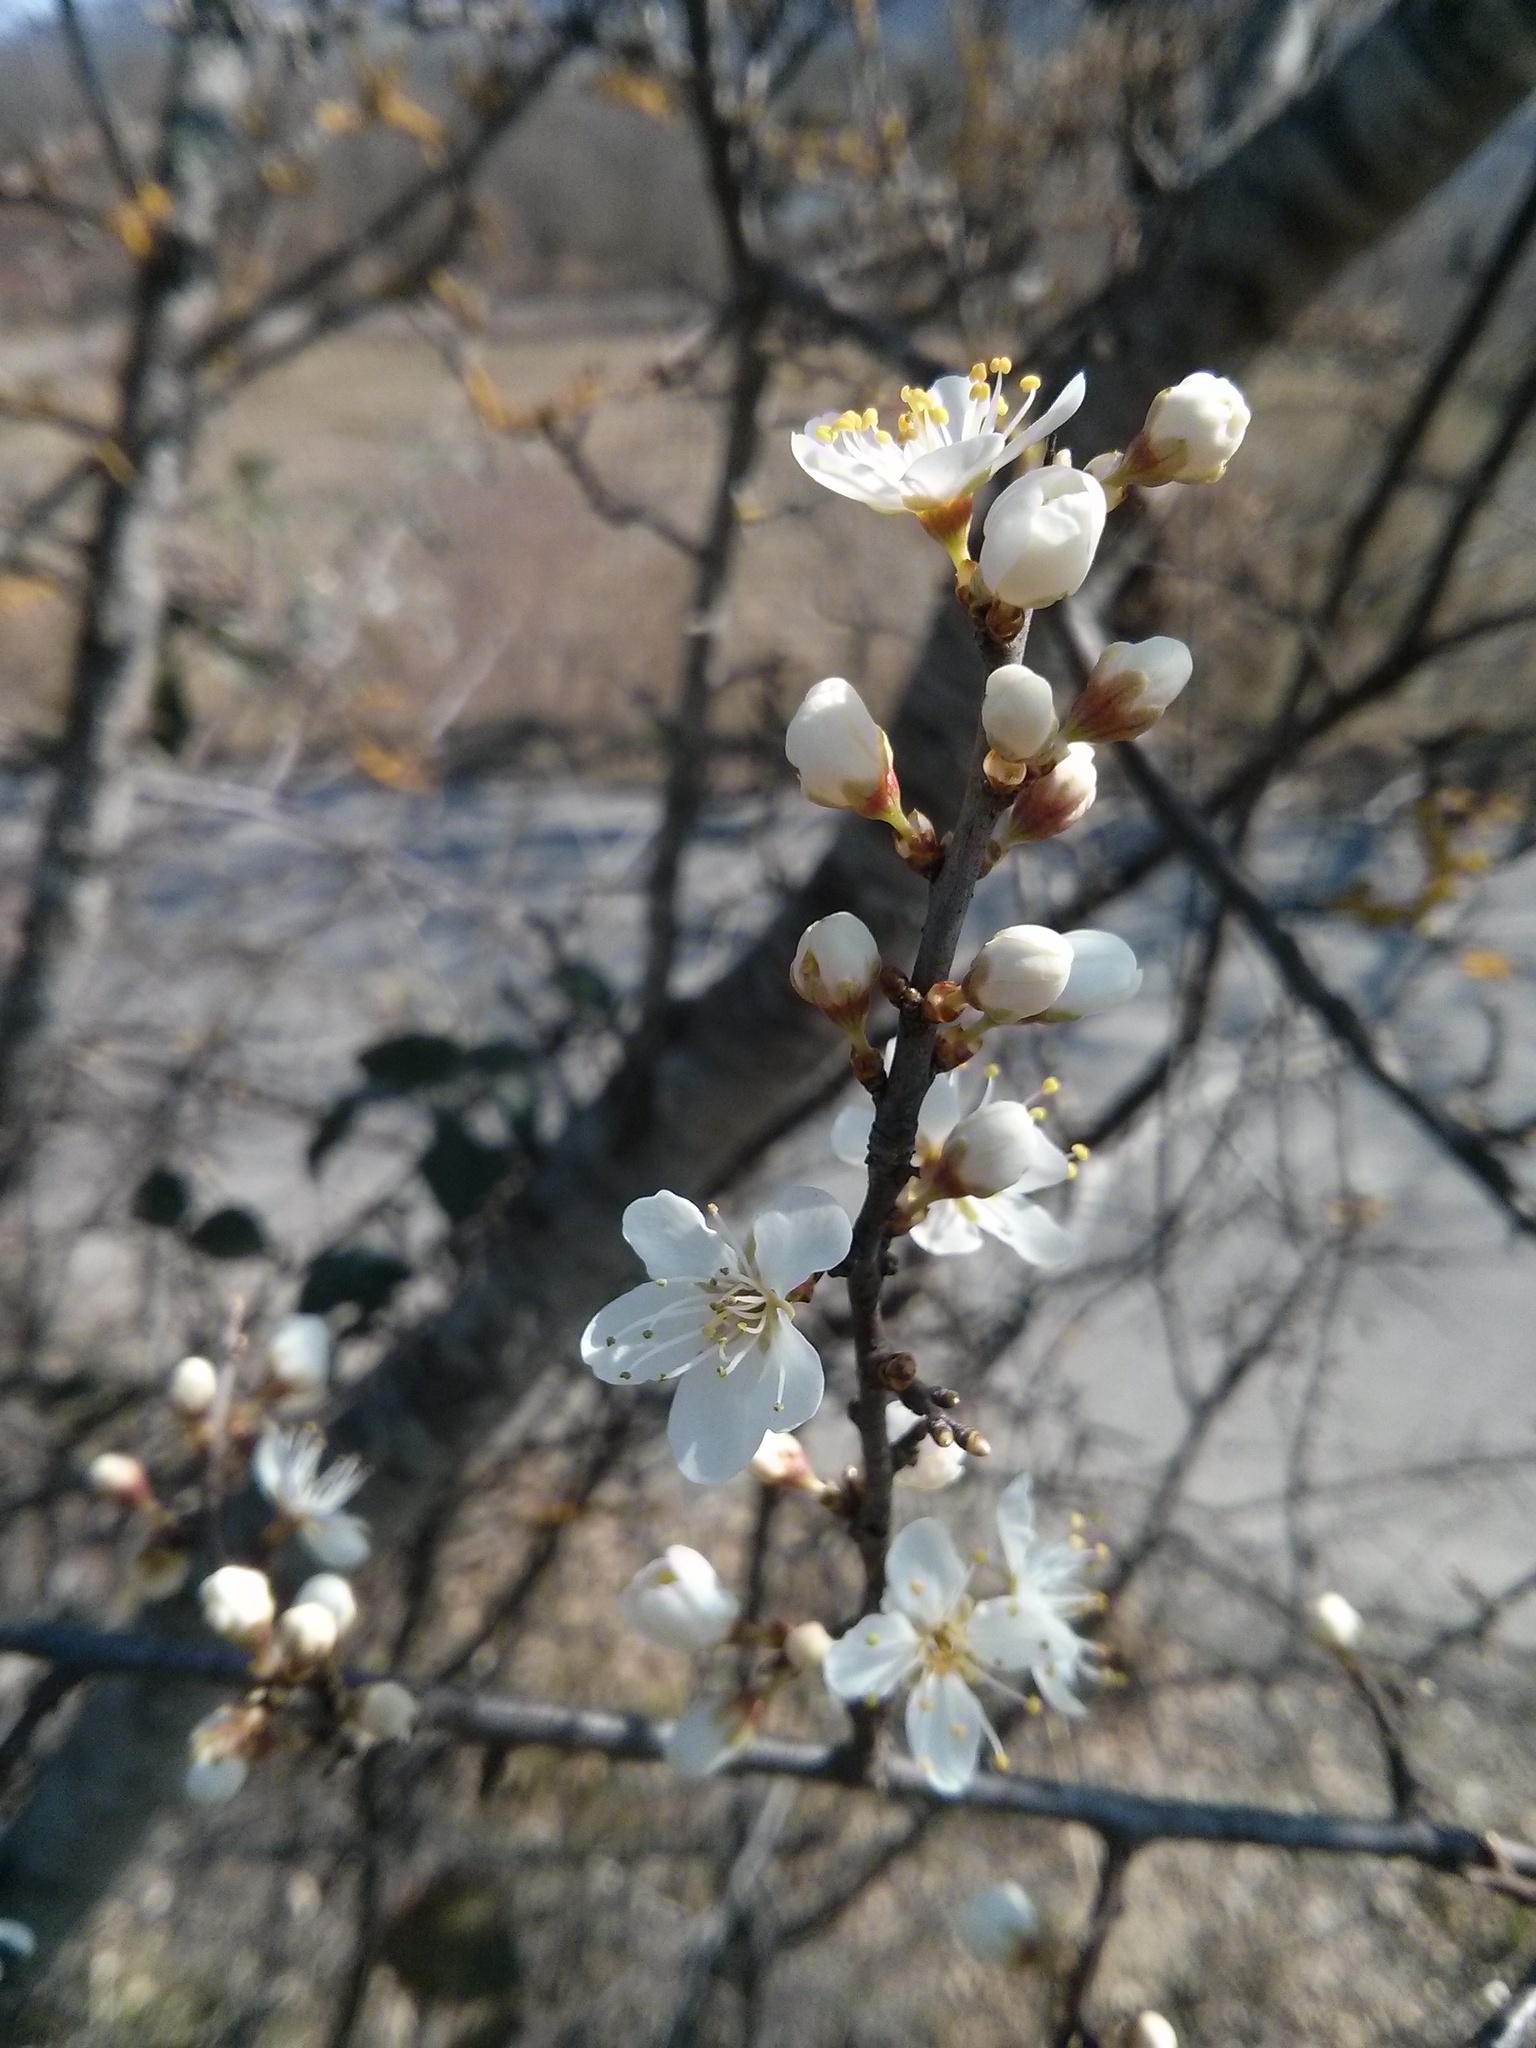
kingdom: Plantae
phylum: Tracheophyta
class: Magnoliopsida
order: Rosales
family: Rosaceae
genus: Prunus
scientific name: Prunus spinosa
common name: Blackthorn
